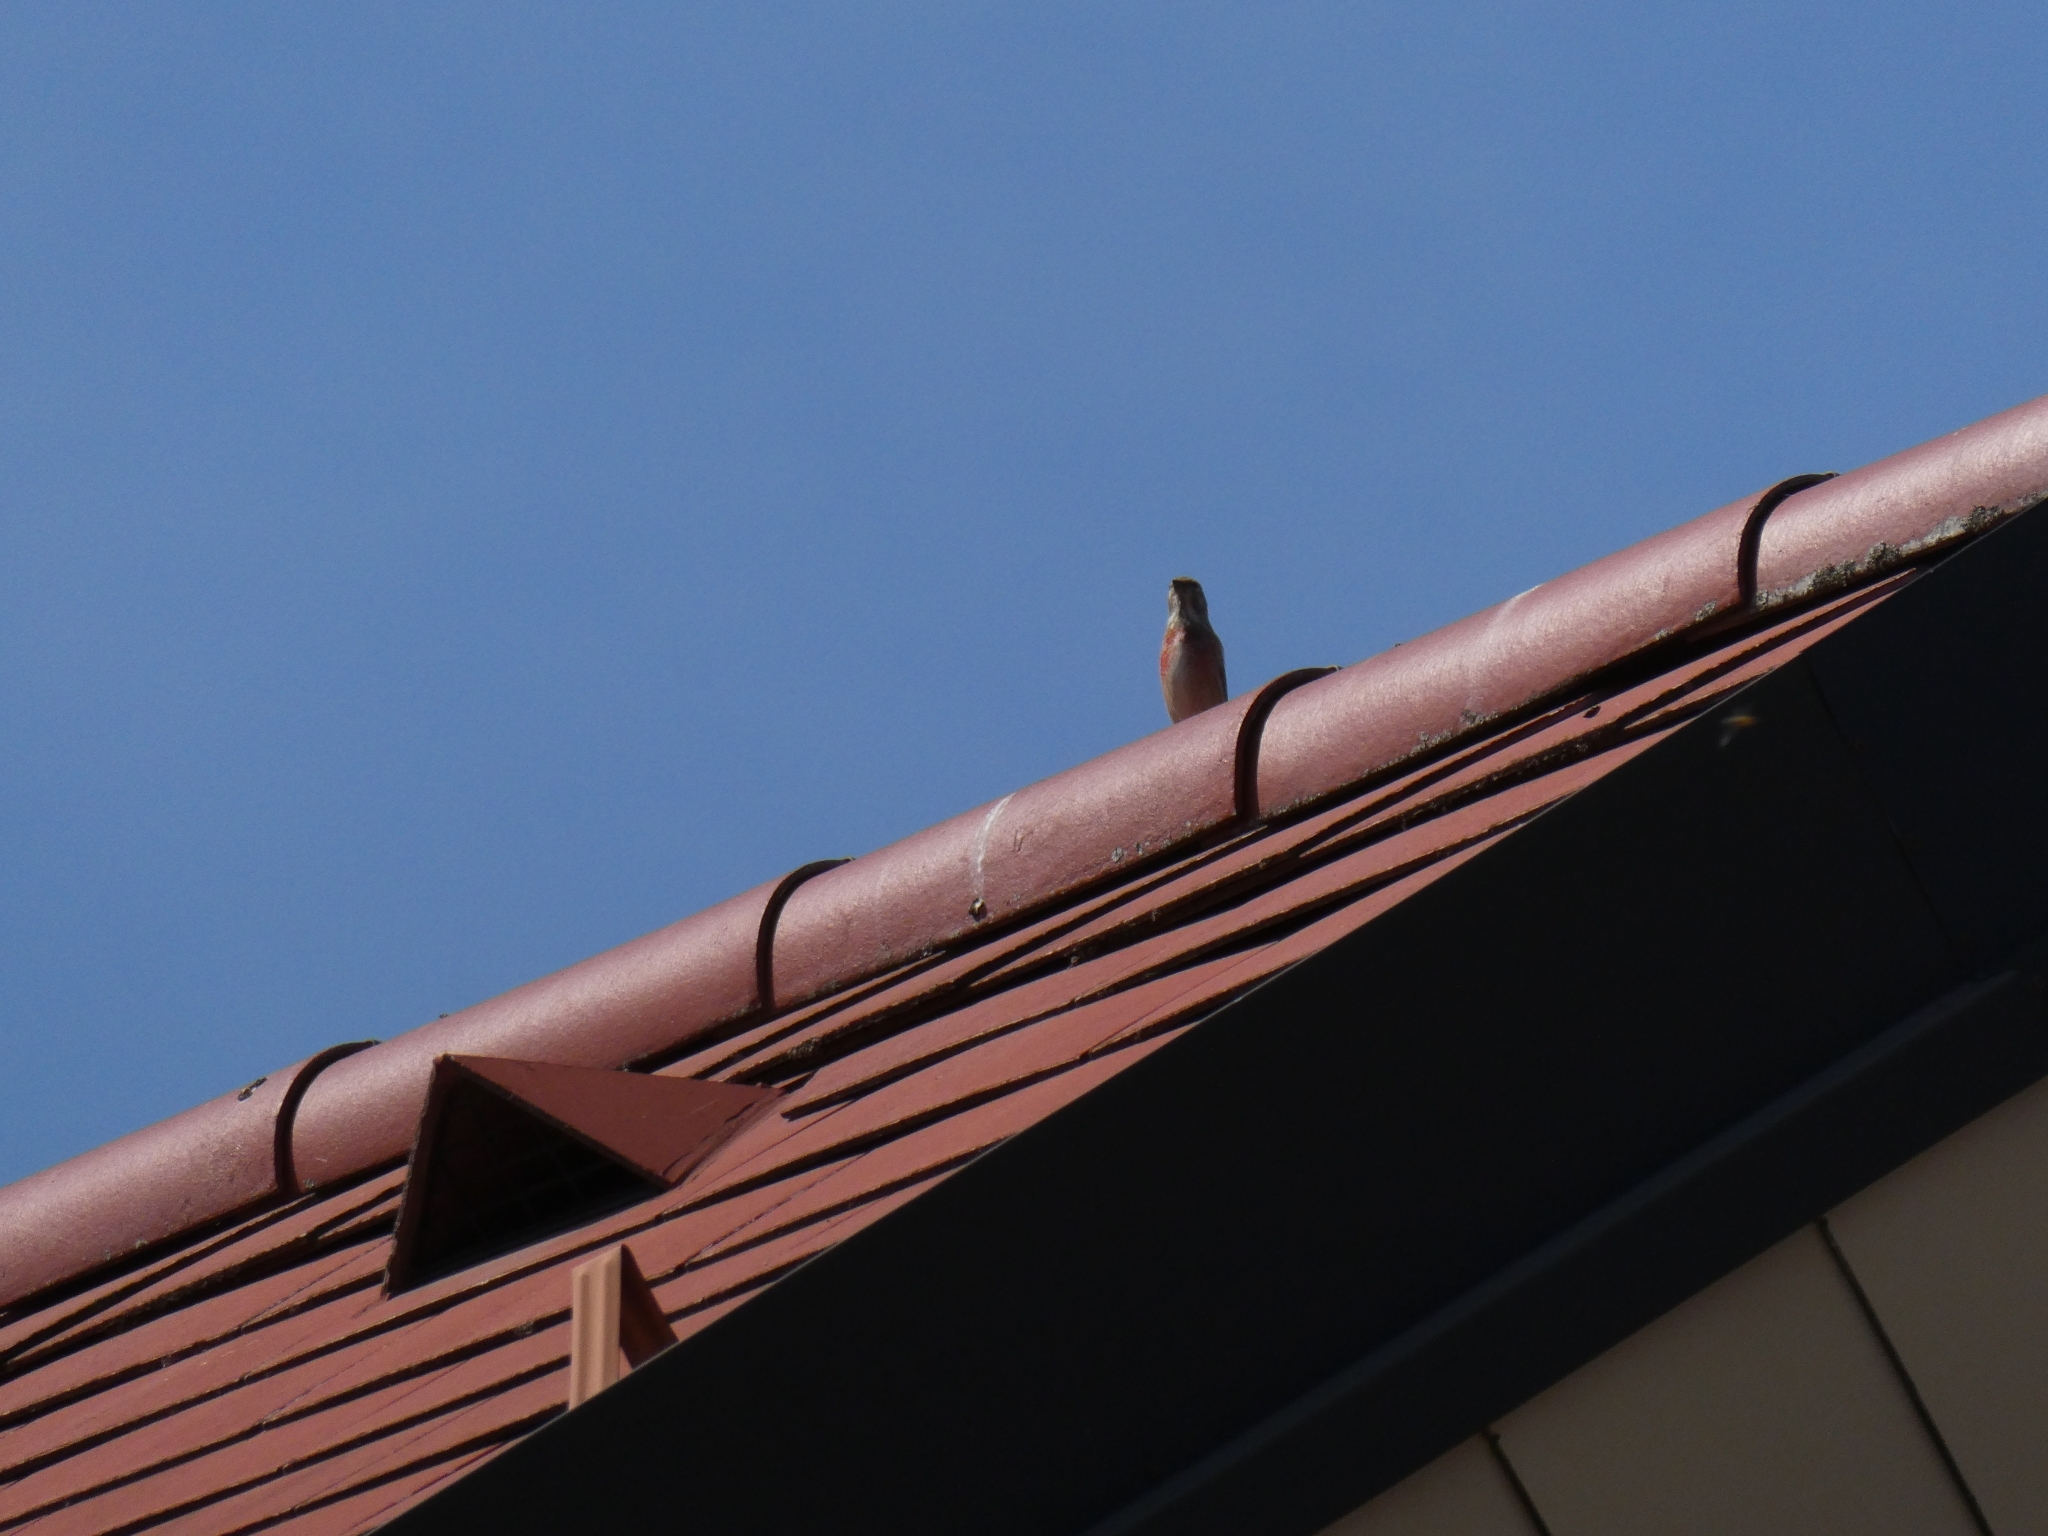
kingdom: Animalia
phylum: Chordata
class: Aves
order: Passeriformes
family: Fringillidae
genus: Linaria
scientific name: Linaria cannabina
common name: Common linnet
